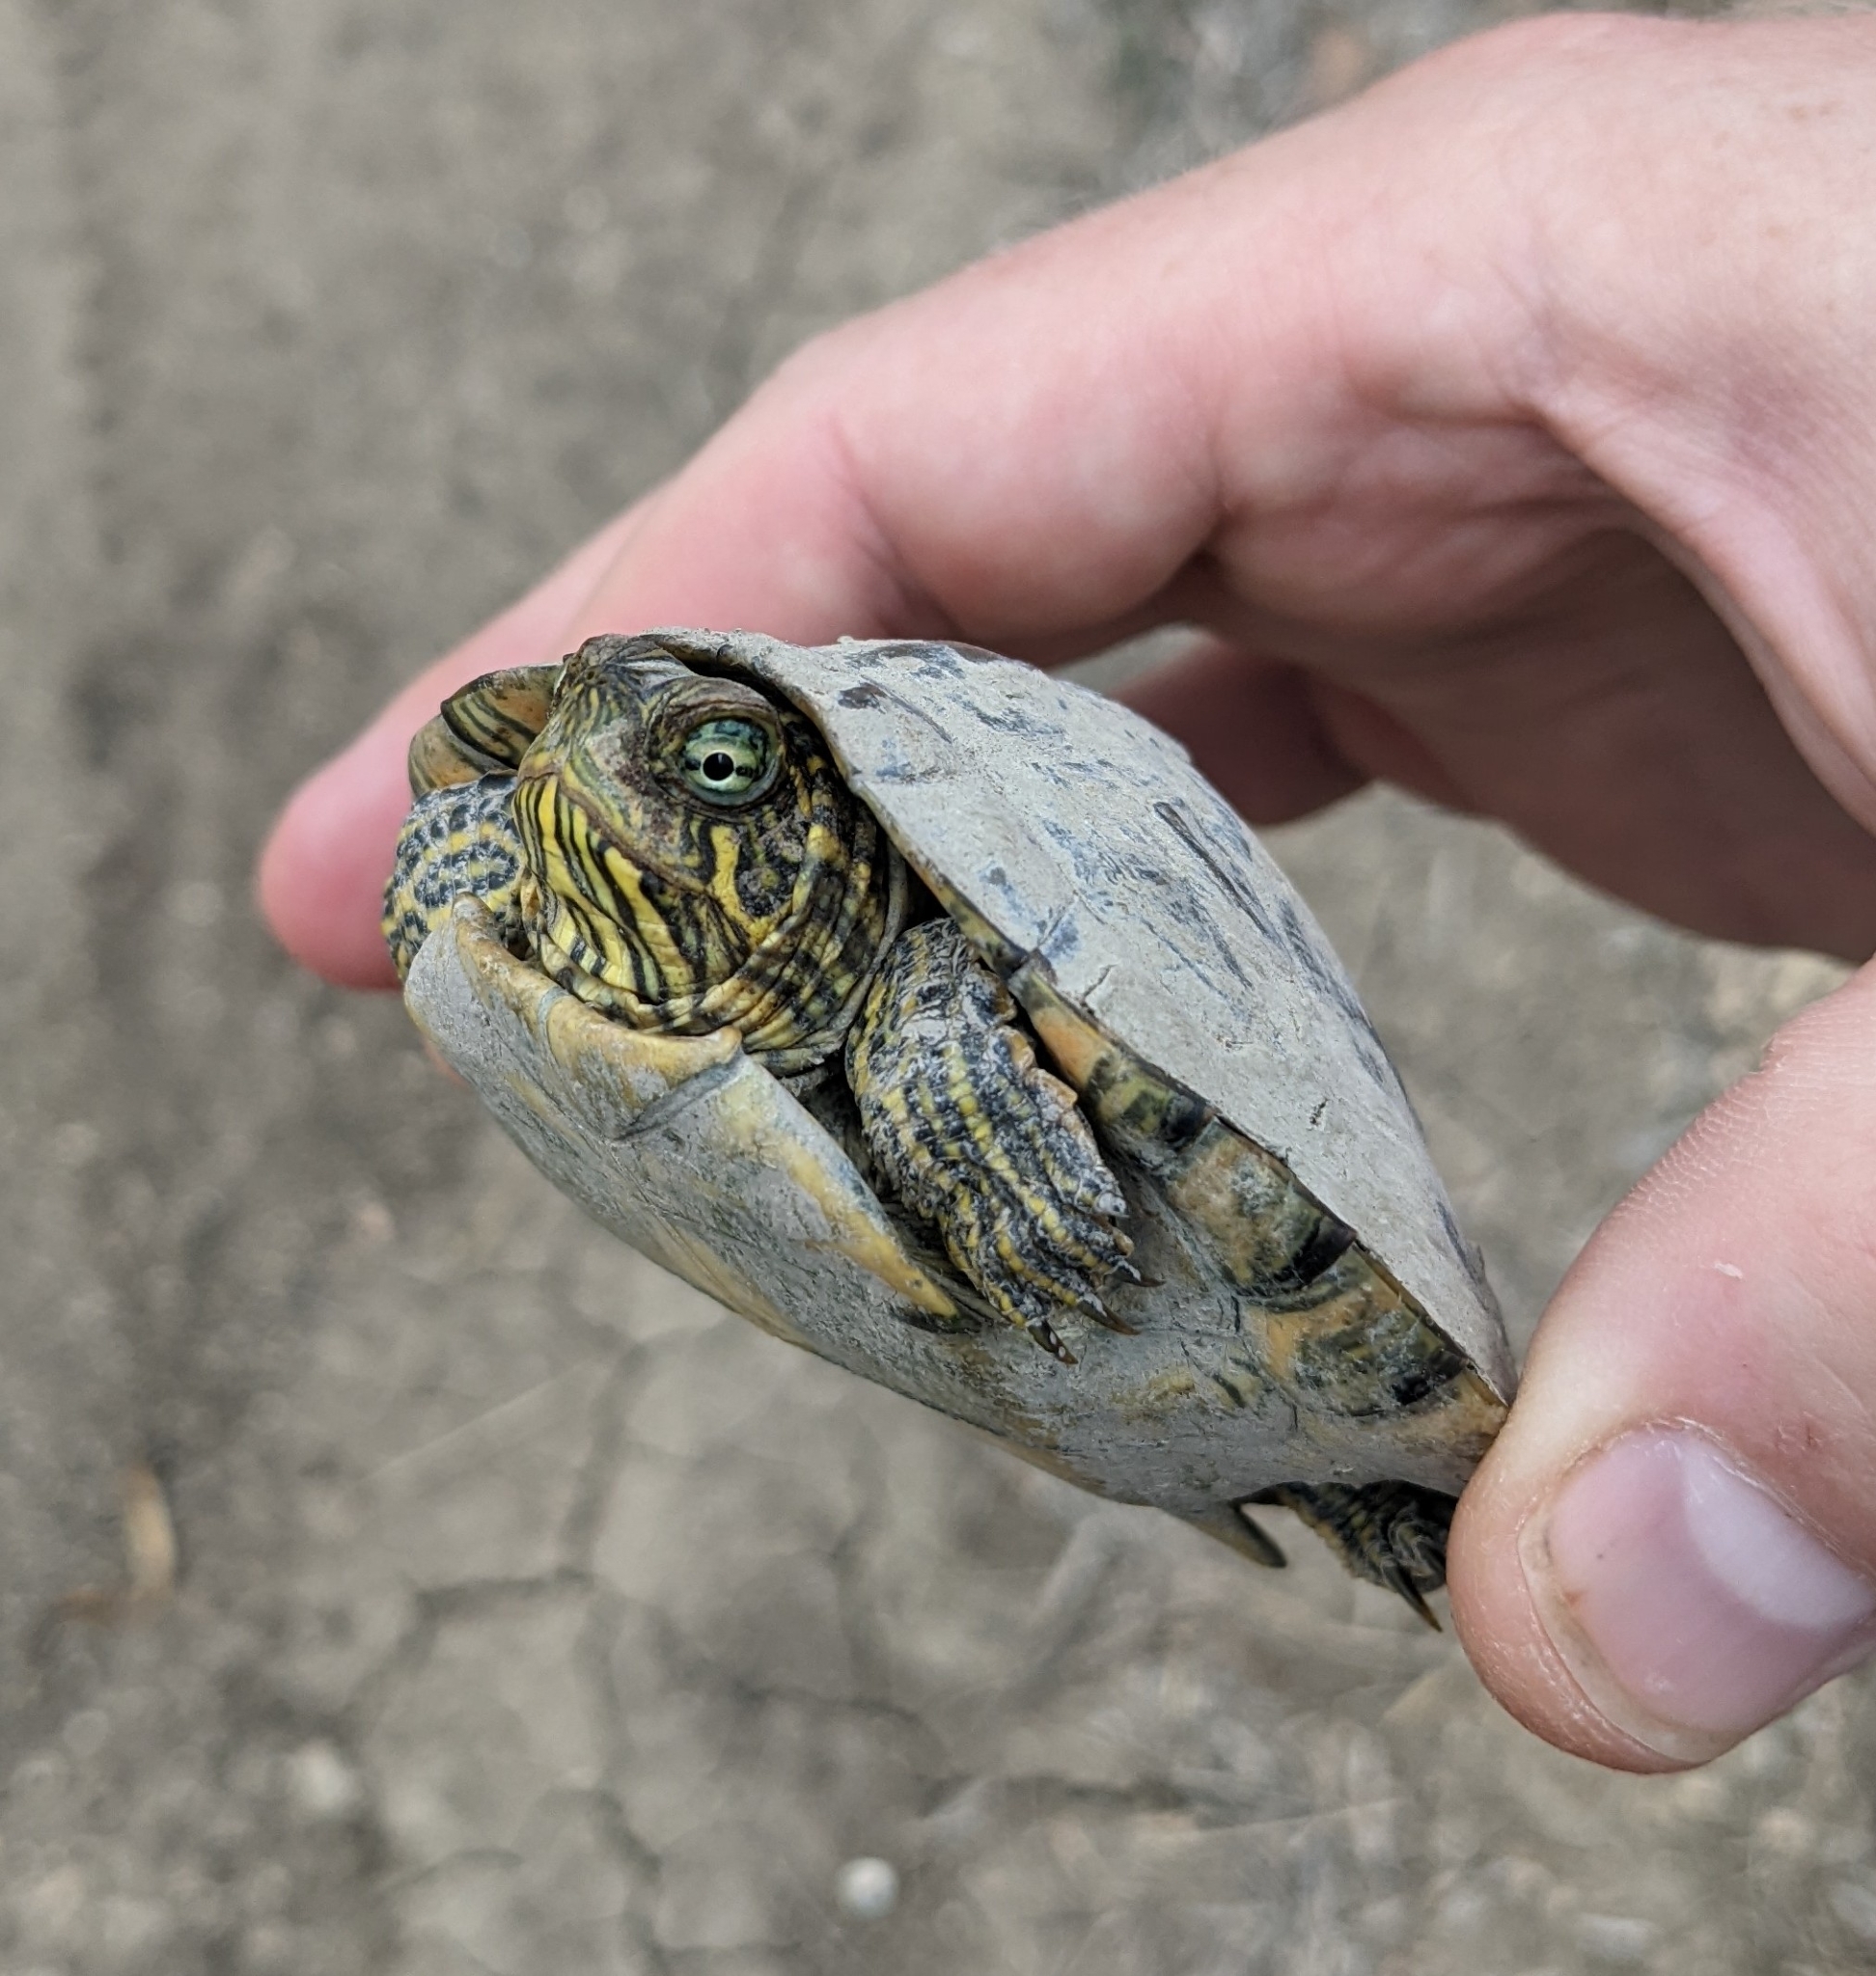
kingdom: Animalia
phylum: Chordata
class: Testudines
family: Emydidae
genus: Pseudemys
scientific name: Pseudemys texana
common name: Texas river cooter
